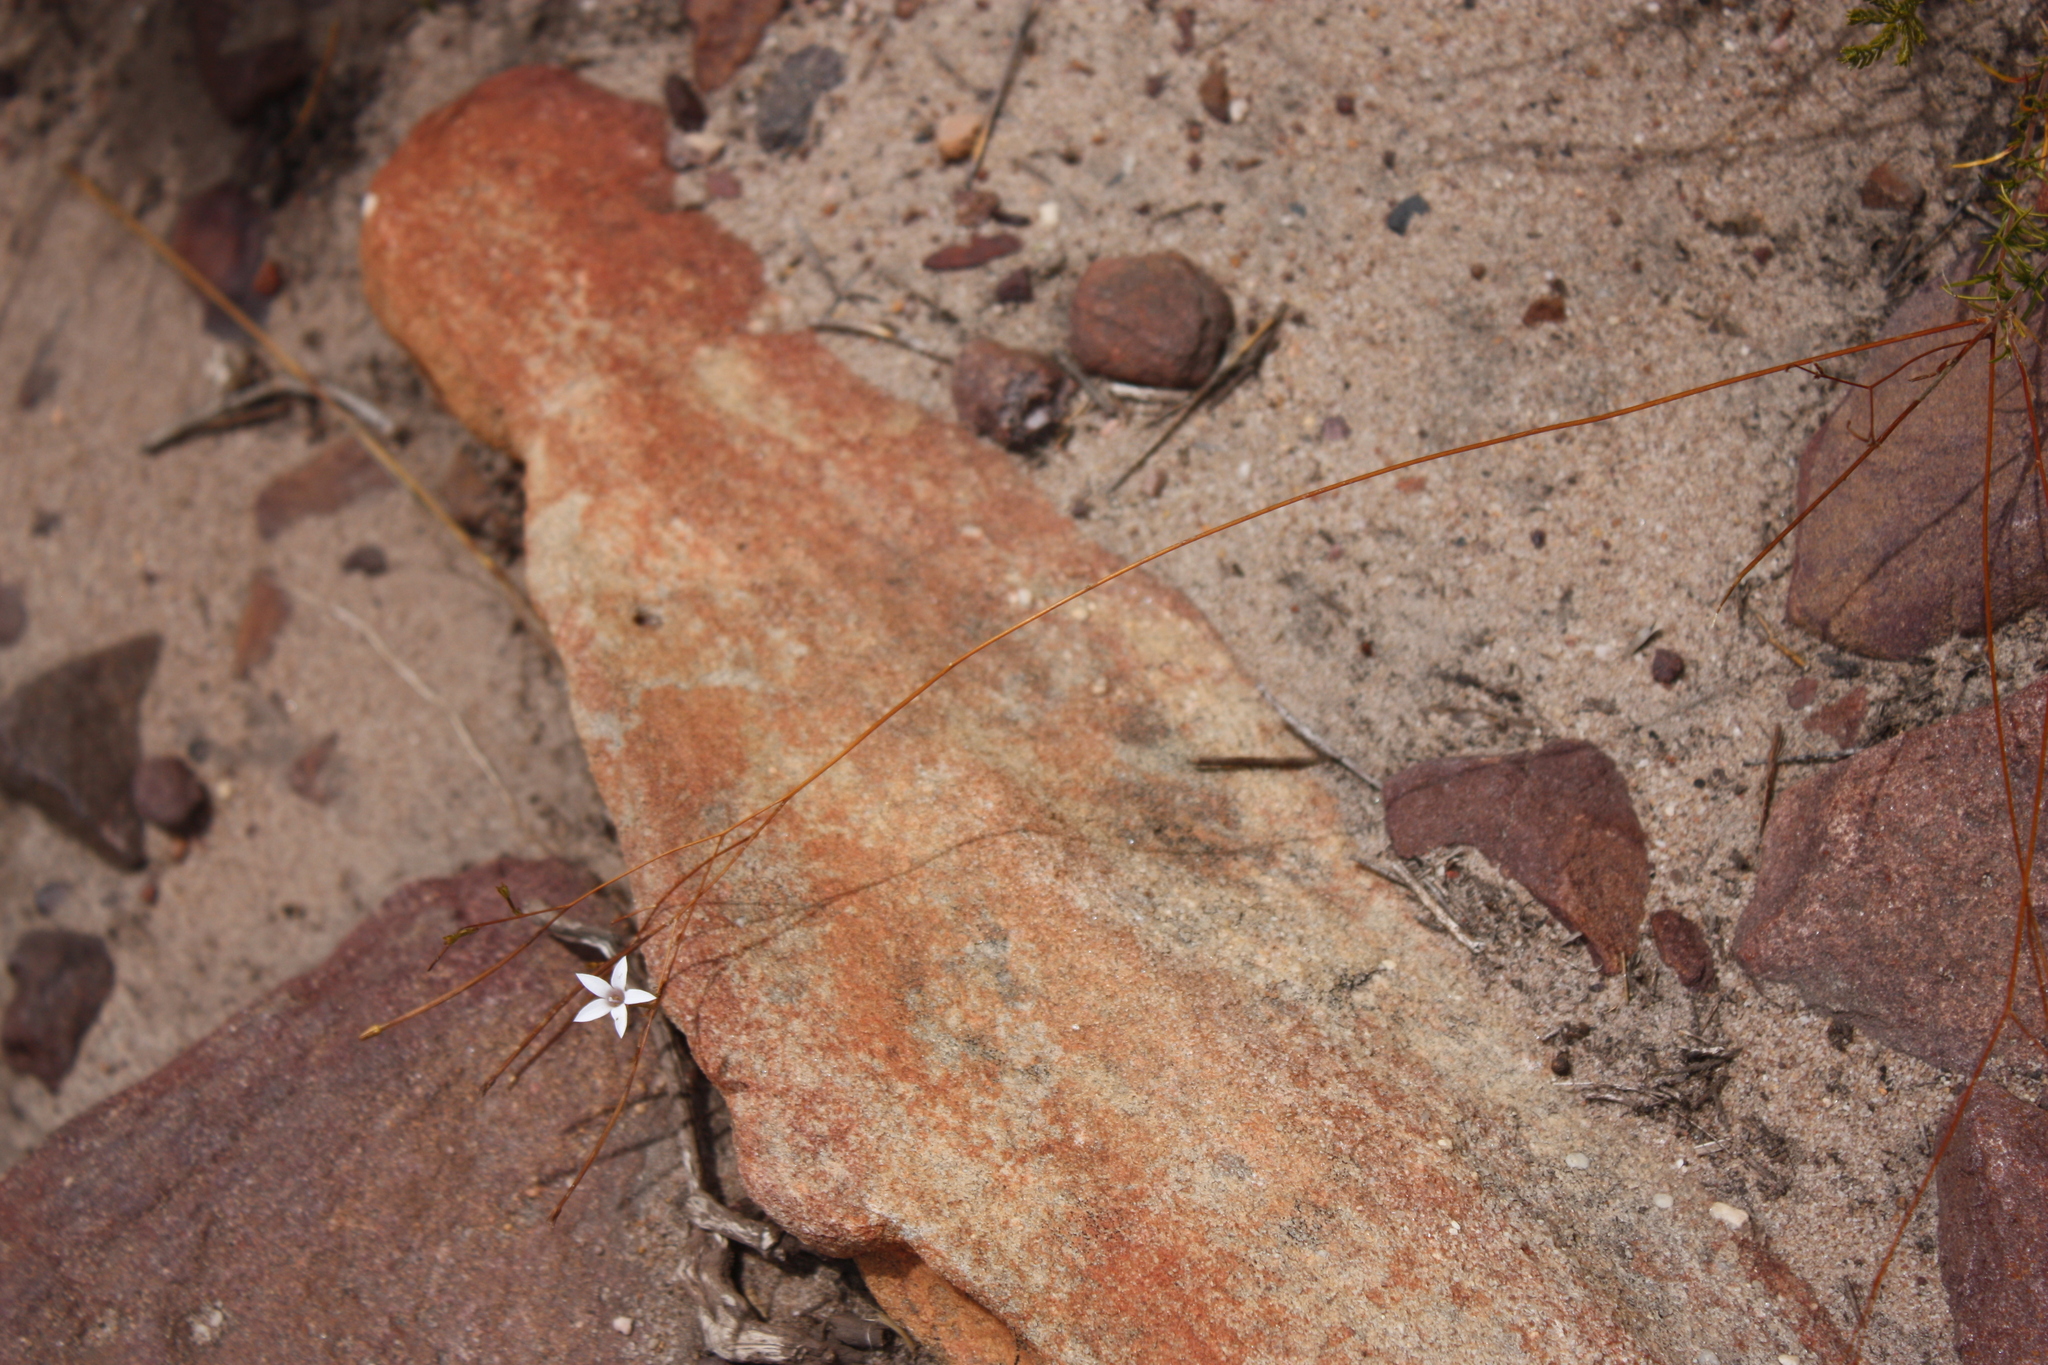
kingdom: Plantae
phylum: Tracheophyta
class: Magnoliopsida
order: Asterales
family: Campanulaceae
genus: Prismatocarpus
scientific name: Prismatocarpus fruticosus
